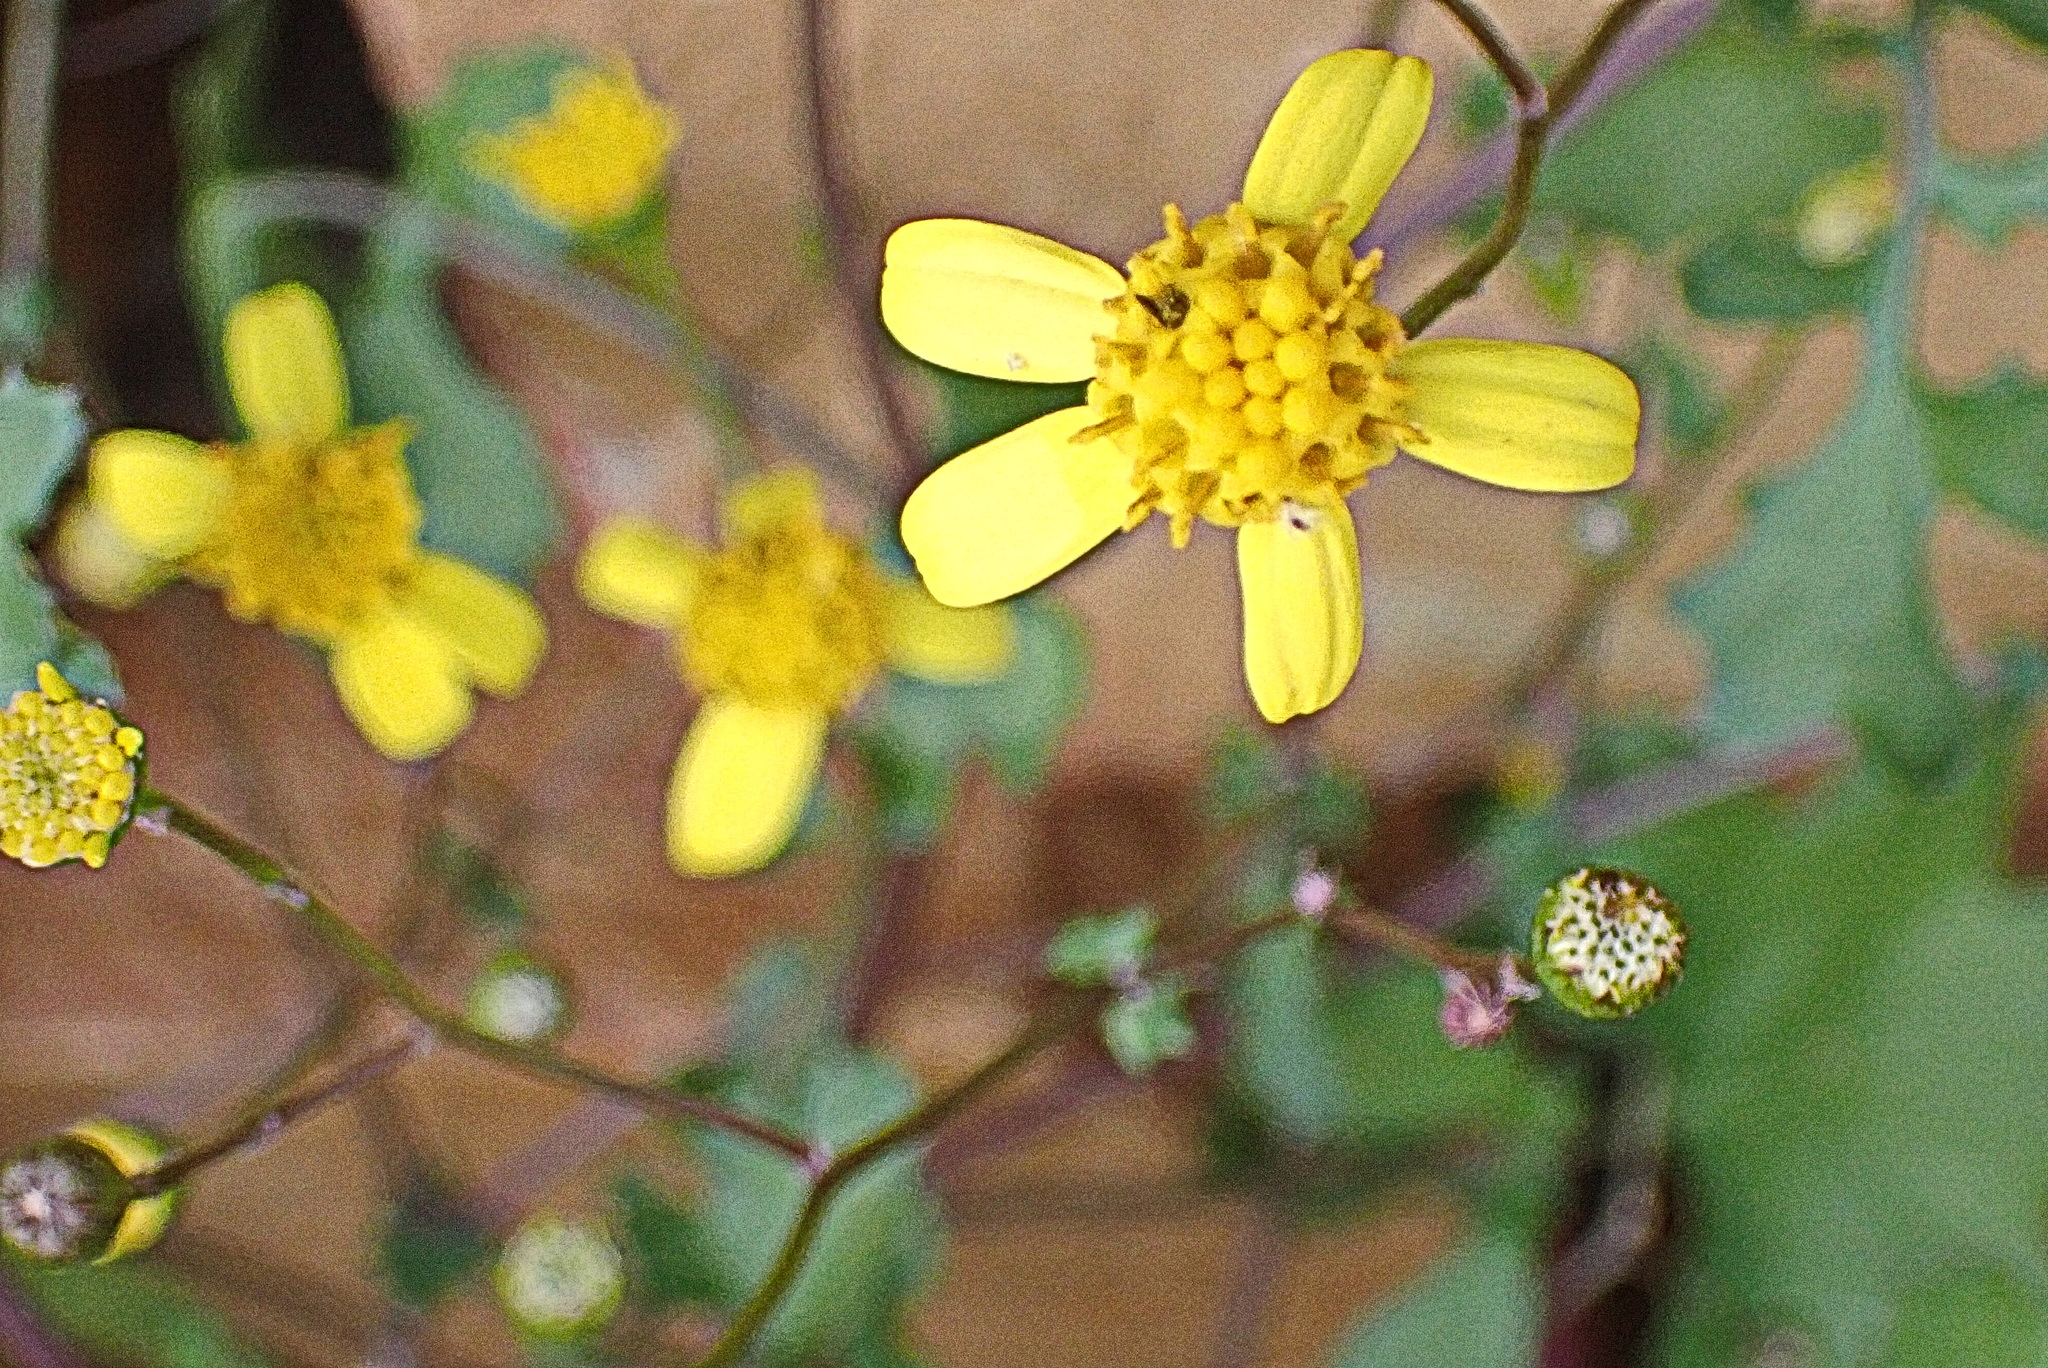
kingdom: Plantae
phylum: Tracheophyta
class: Magnoliopsida
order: Asterales
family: Asteraceae
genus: Cineraria
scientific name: Cineraria lobata
